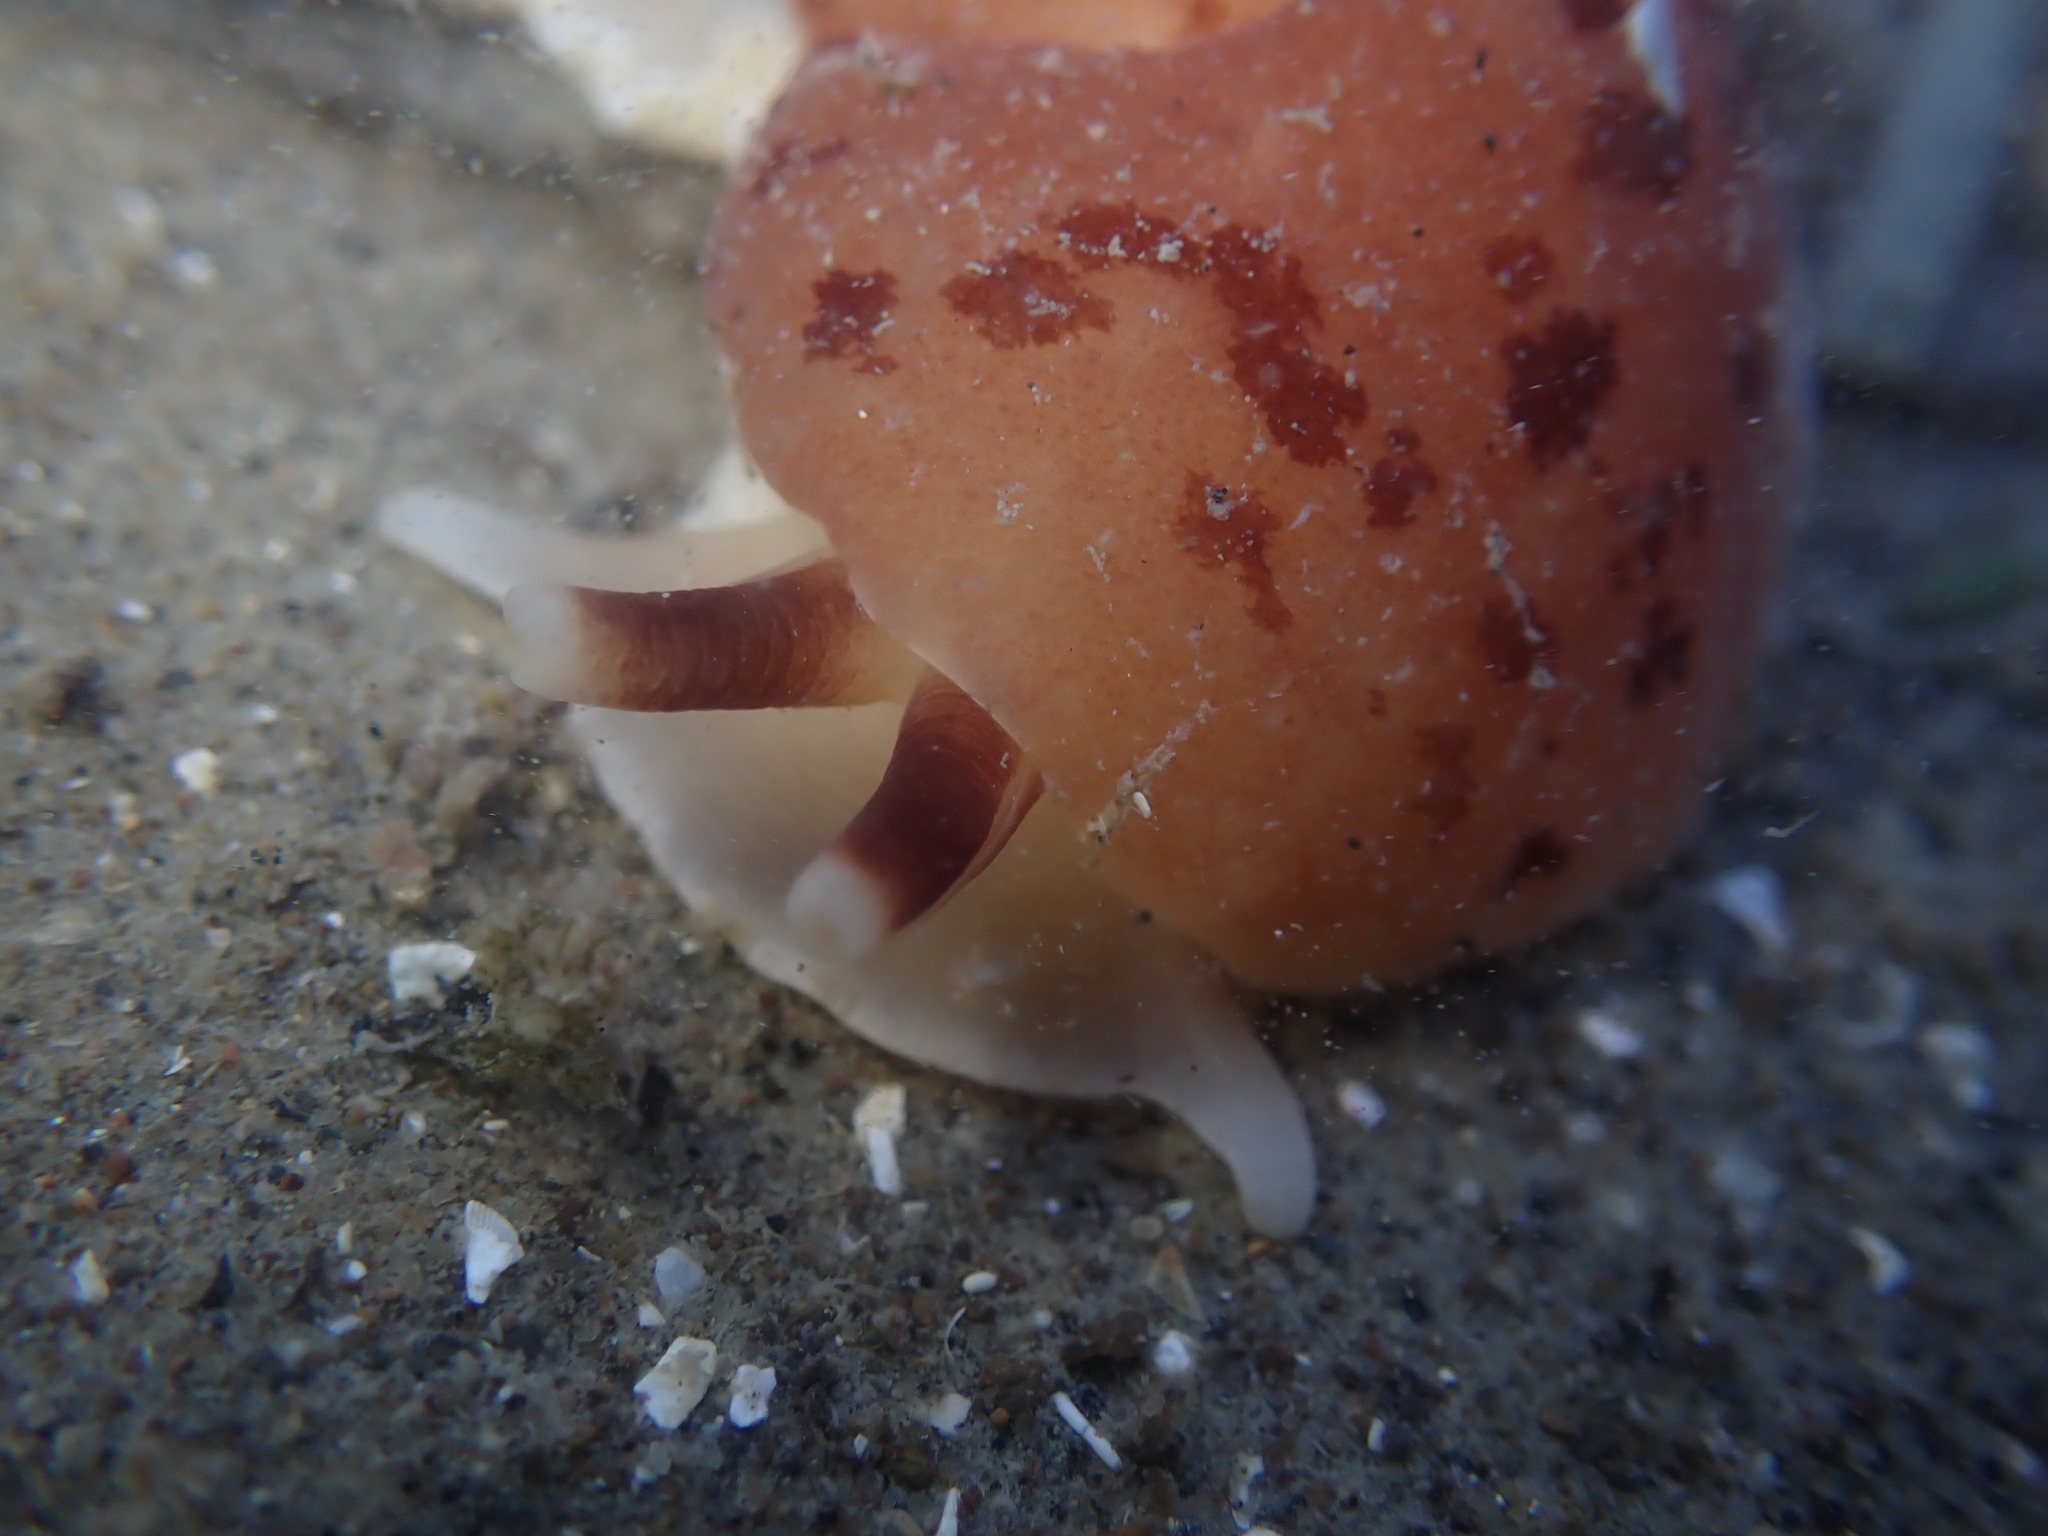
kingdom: Animalia
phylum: Mollusca
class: Gastropoda
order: Pleurobranchida
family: Pleurobranchidae
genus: Berthella
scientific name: Berthella ornata
